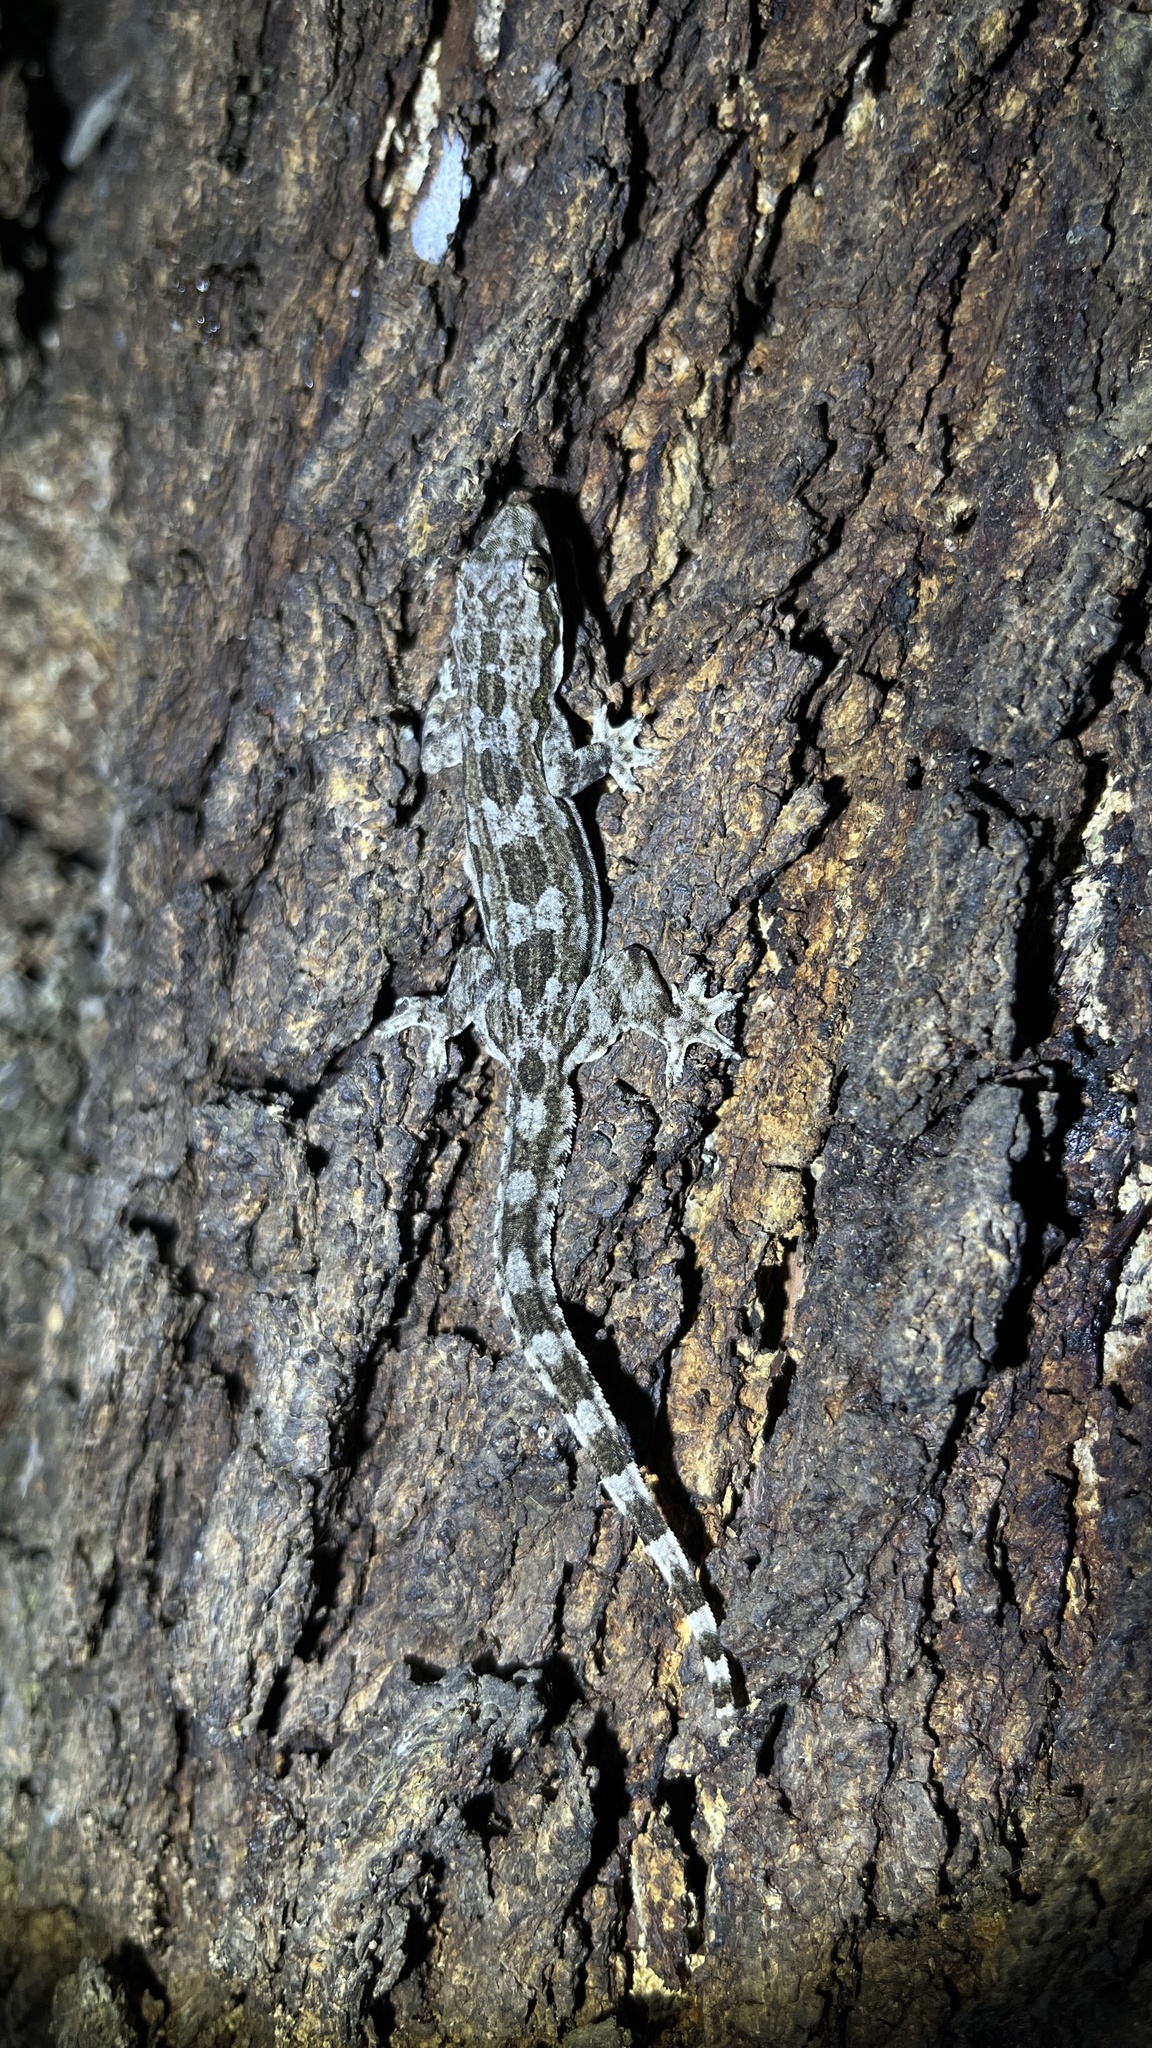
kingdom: Animalia
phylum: Chordata
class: Squamata
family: Gekkonidae
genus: Hemidactylus
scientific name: Hemidactylus platyurus
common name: Flat-tailed house gecko
